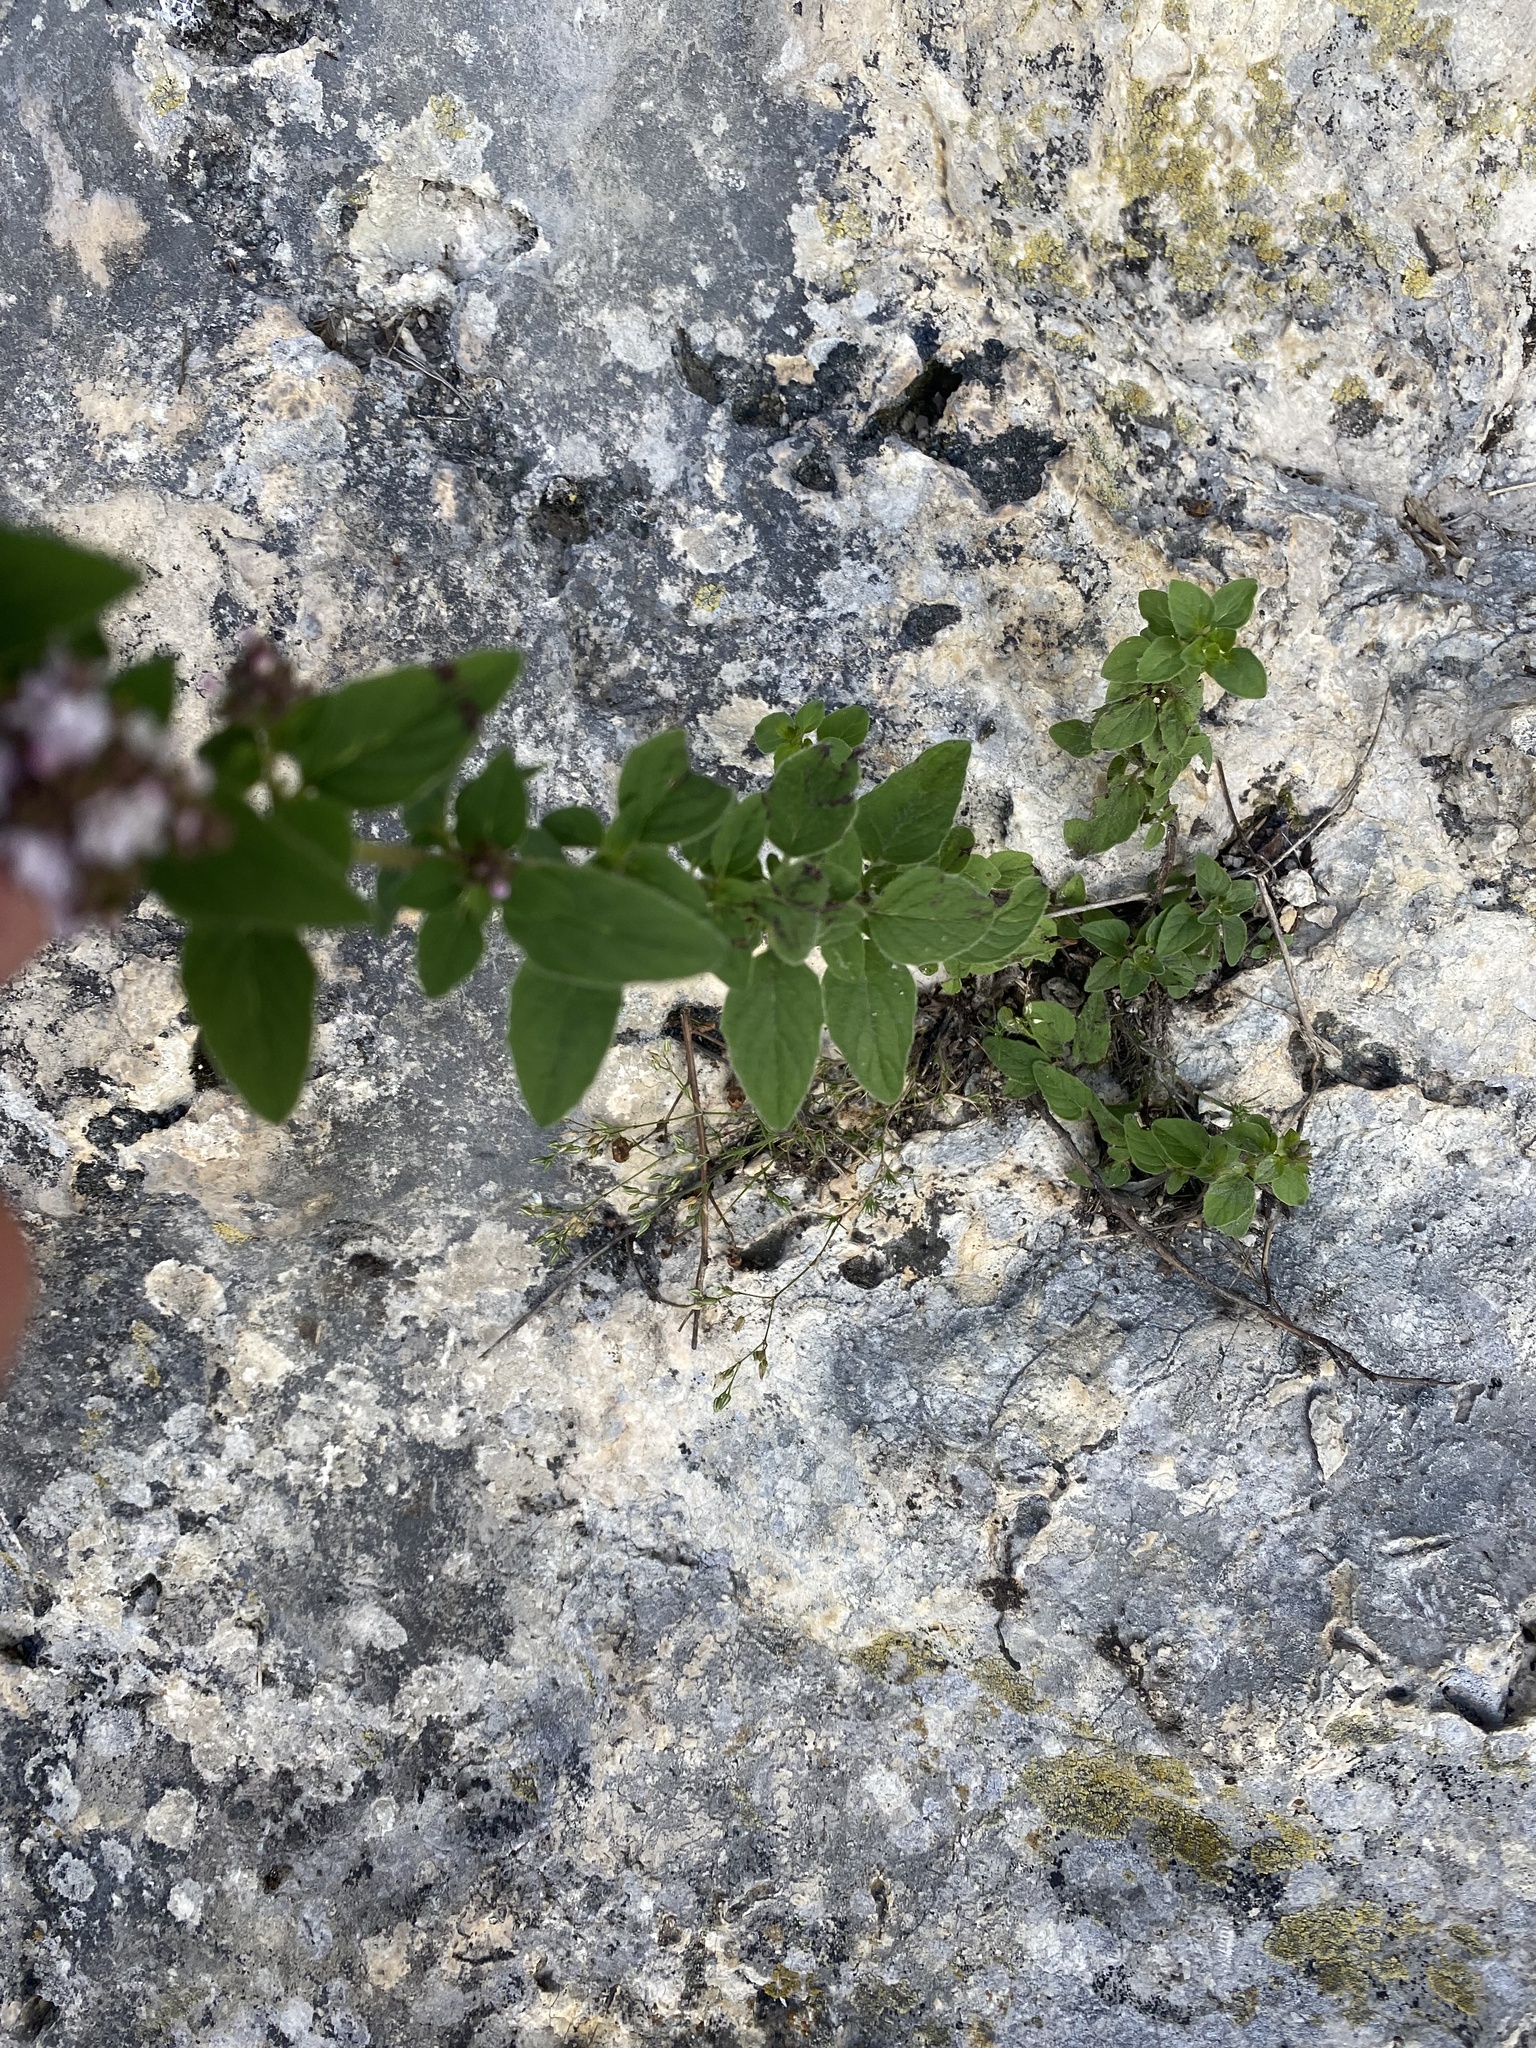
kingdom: Plantae
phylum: Tracheophyta
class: Magnoliopsida
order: Lamiales
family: Lamiaceae
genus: Origanum
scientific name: Origanum vulgare
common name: Wild marjoram
